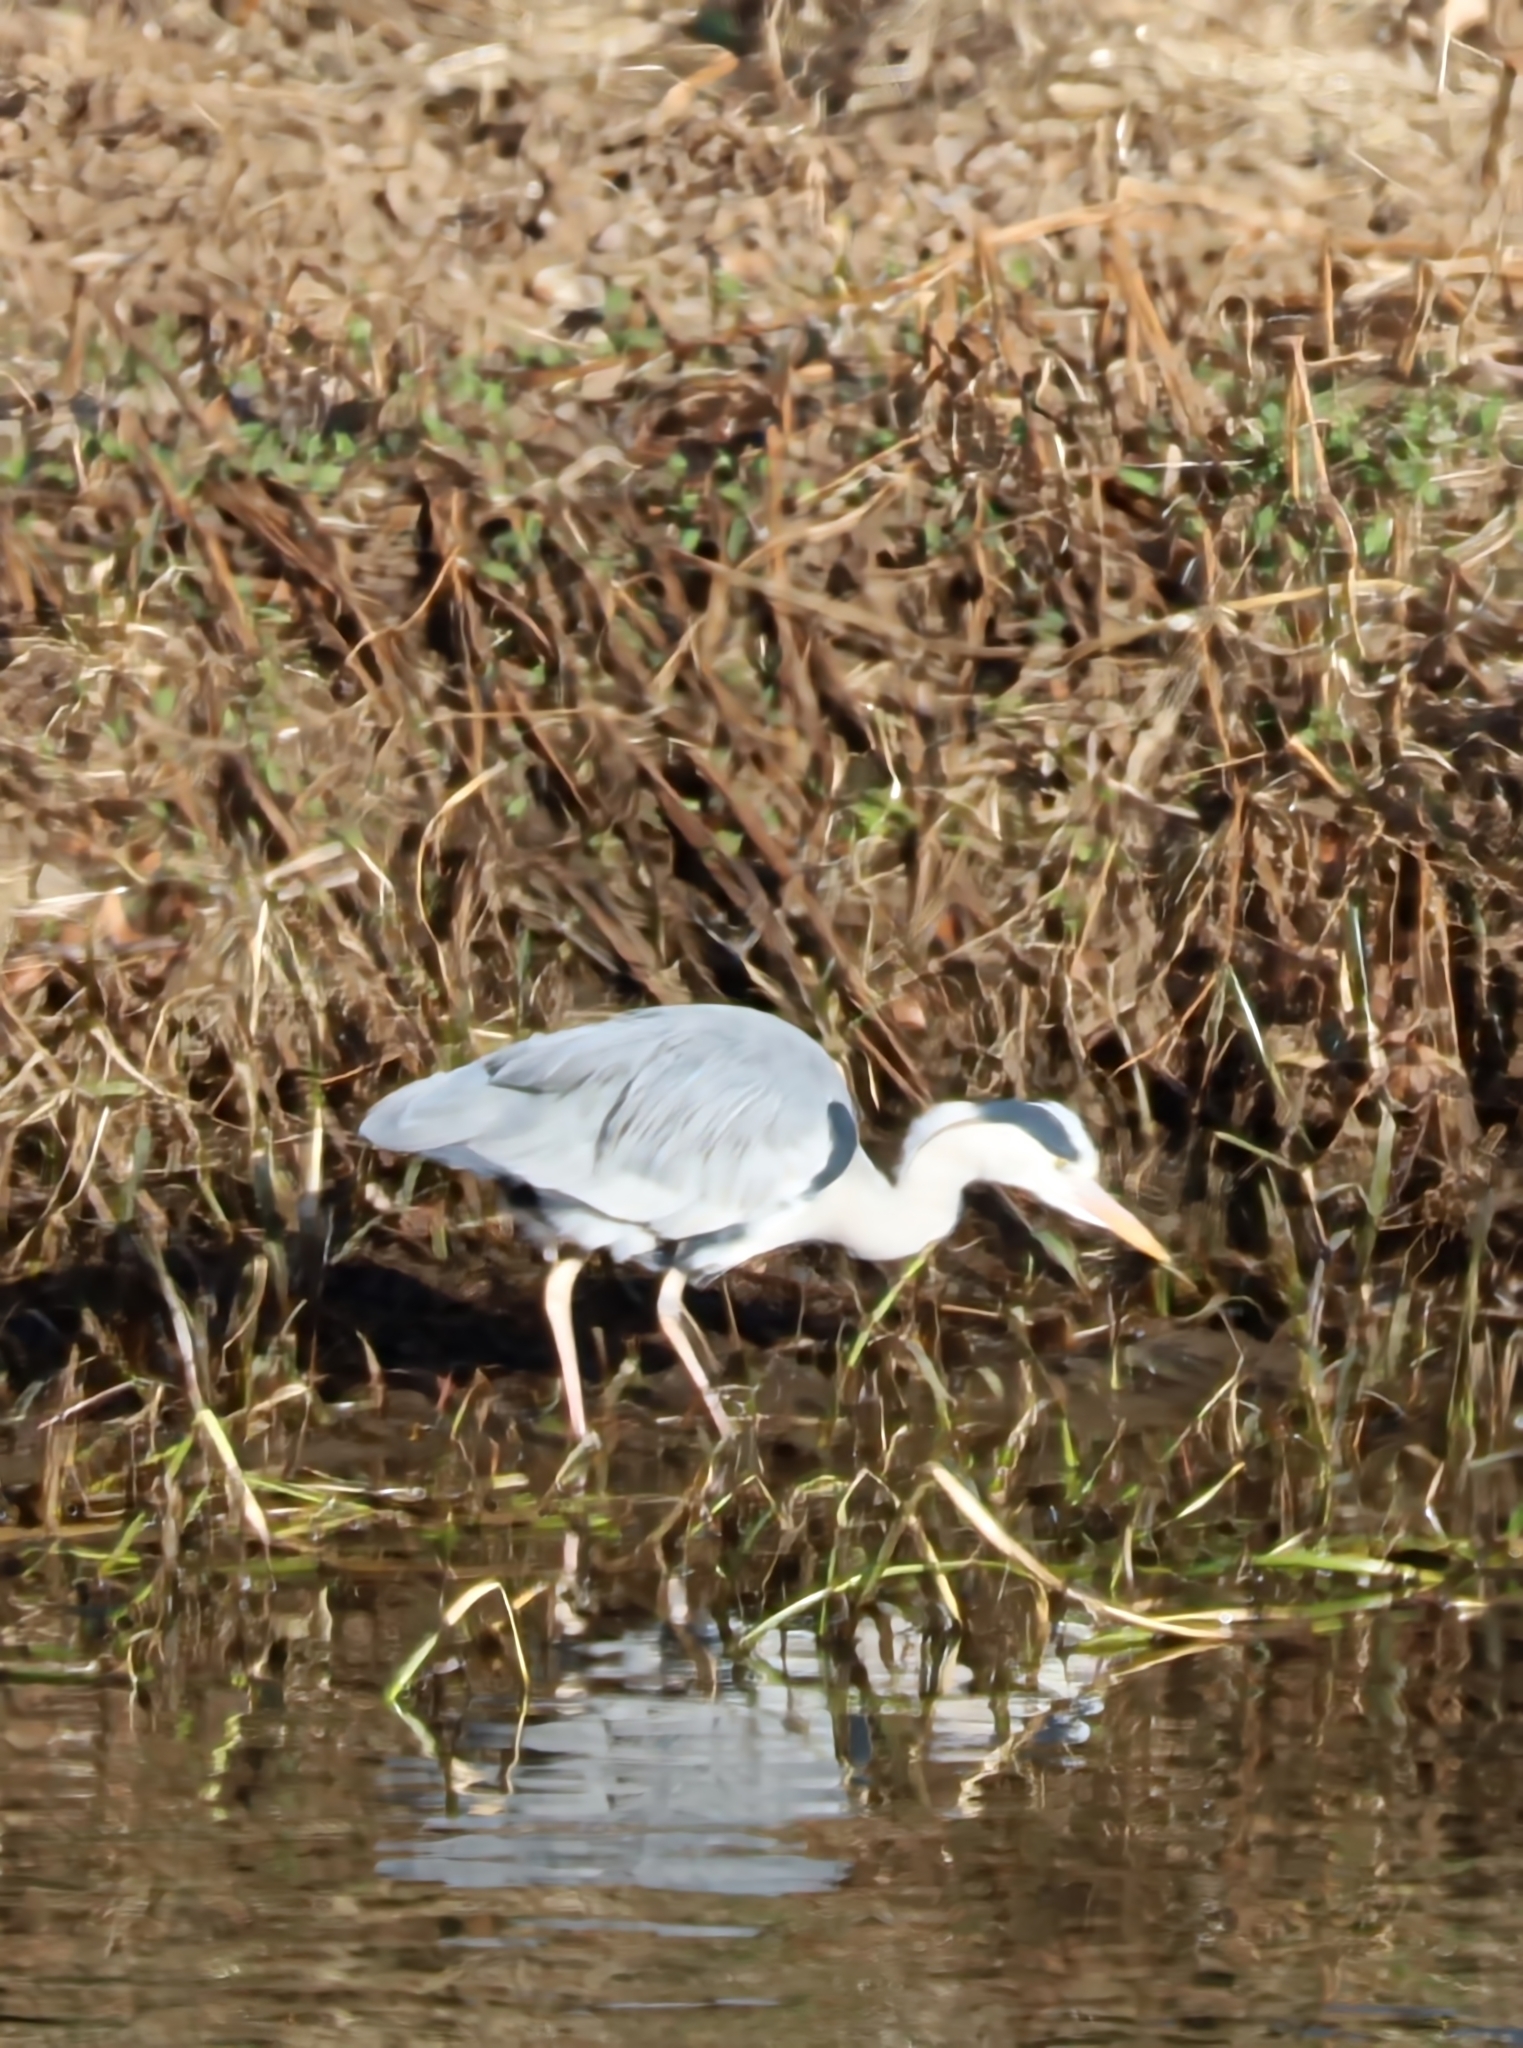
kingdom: Animalia
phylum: Chordata
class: Aves
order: Pelecaniformes
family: Ardeidae
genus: Ardea
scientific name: Ardea cinerea
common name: Grey heron
